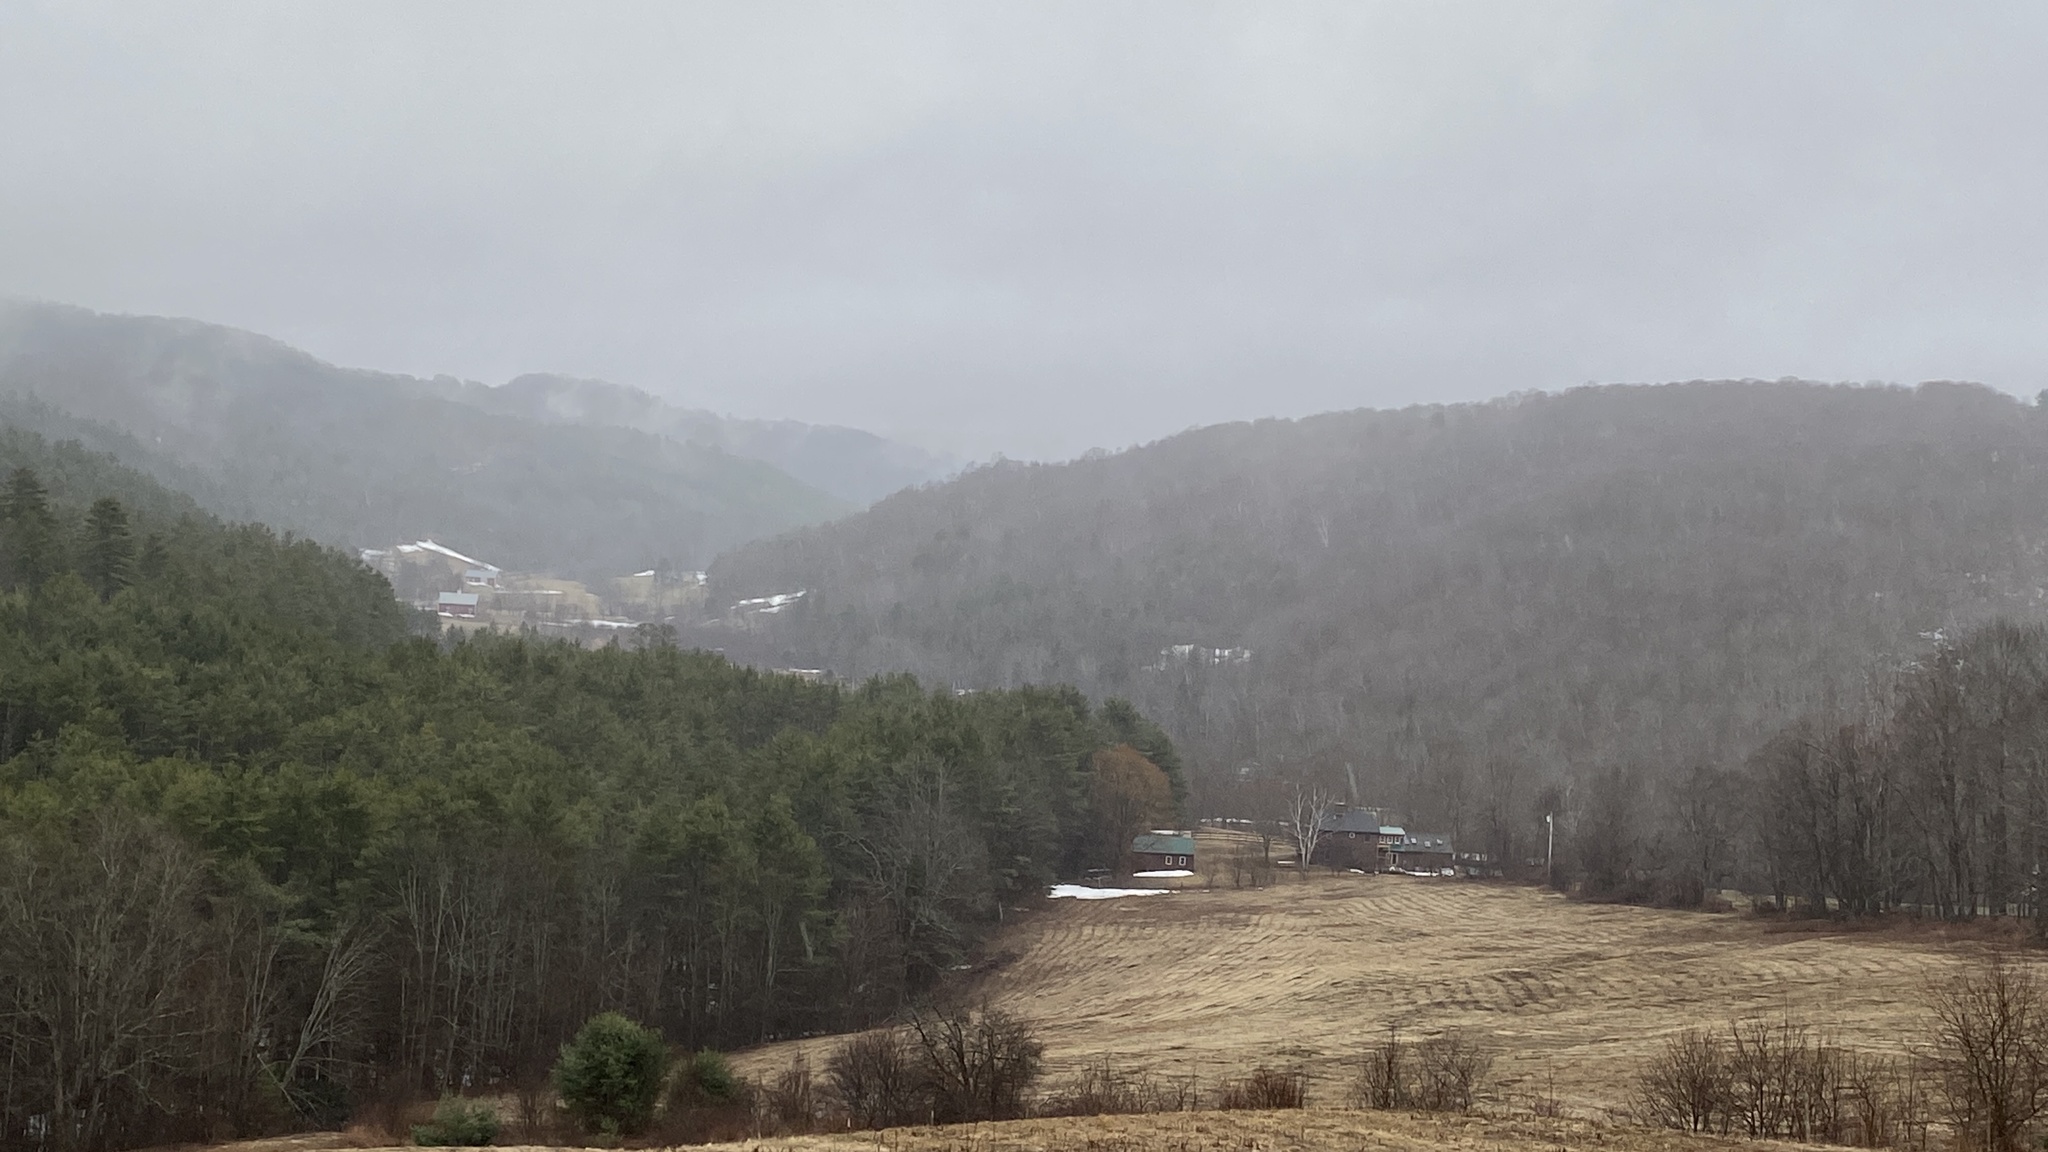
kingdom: Plantae
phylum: Tracheophyta
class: Pinopsida
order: Pinales
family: Pinaceae
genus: Pinus
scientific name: Pinus strobus
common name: Weymouth pine
